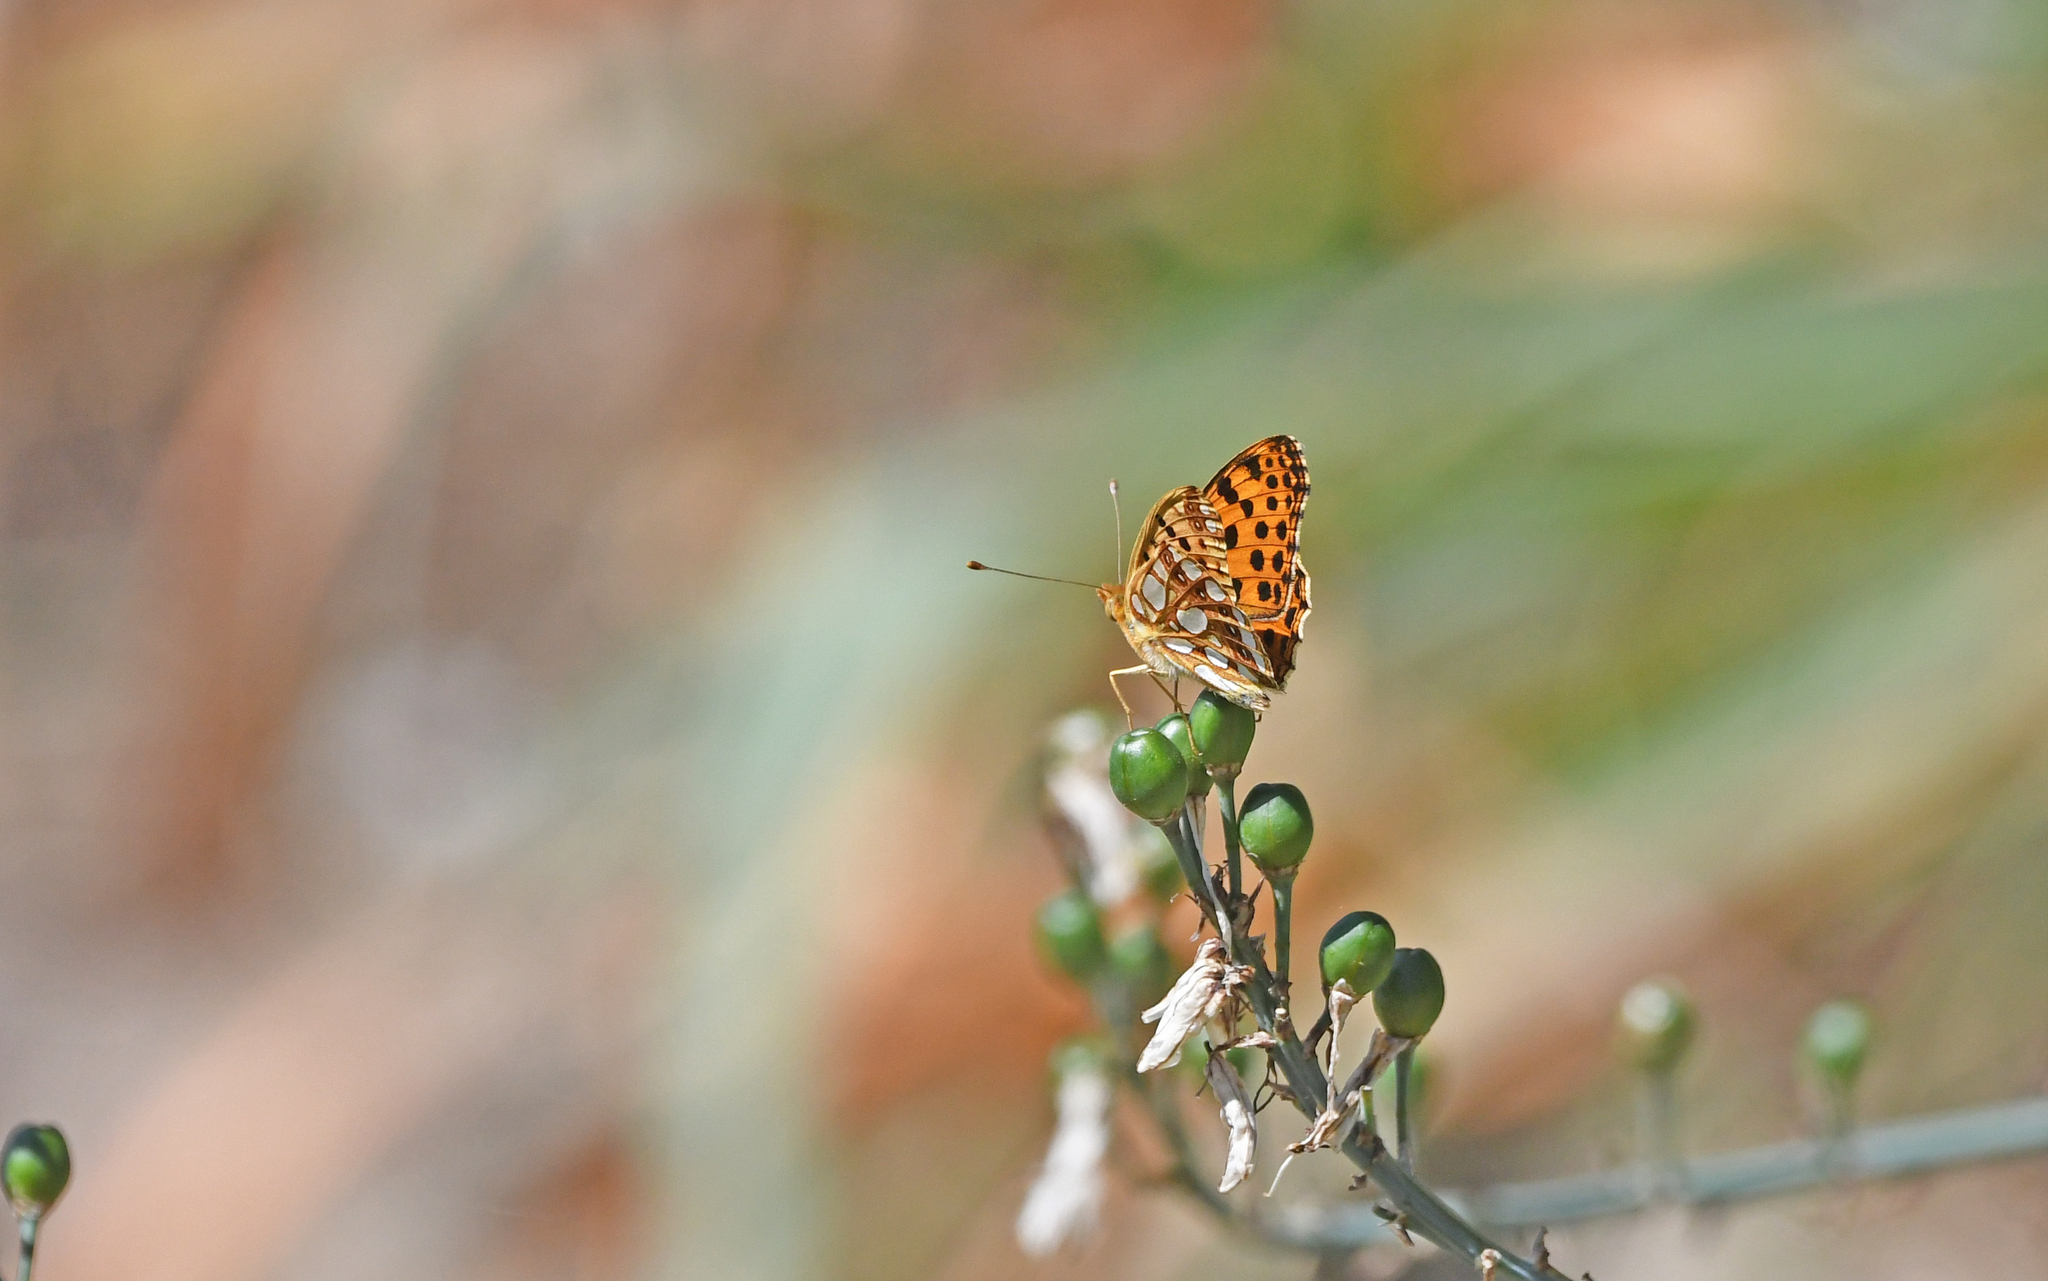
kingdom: Animalia
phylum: Arthropoda
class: Insecta
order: Lepidoptera
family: Nymphalidae
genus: Issoria
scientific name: Issoria lathonia
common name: Queen of spain fritillary
